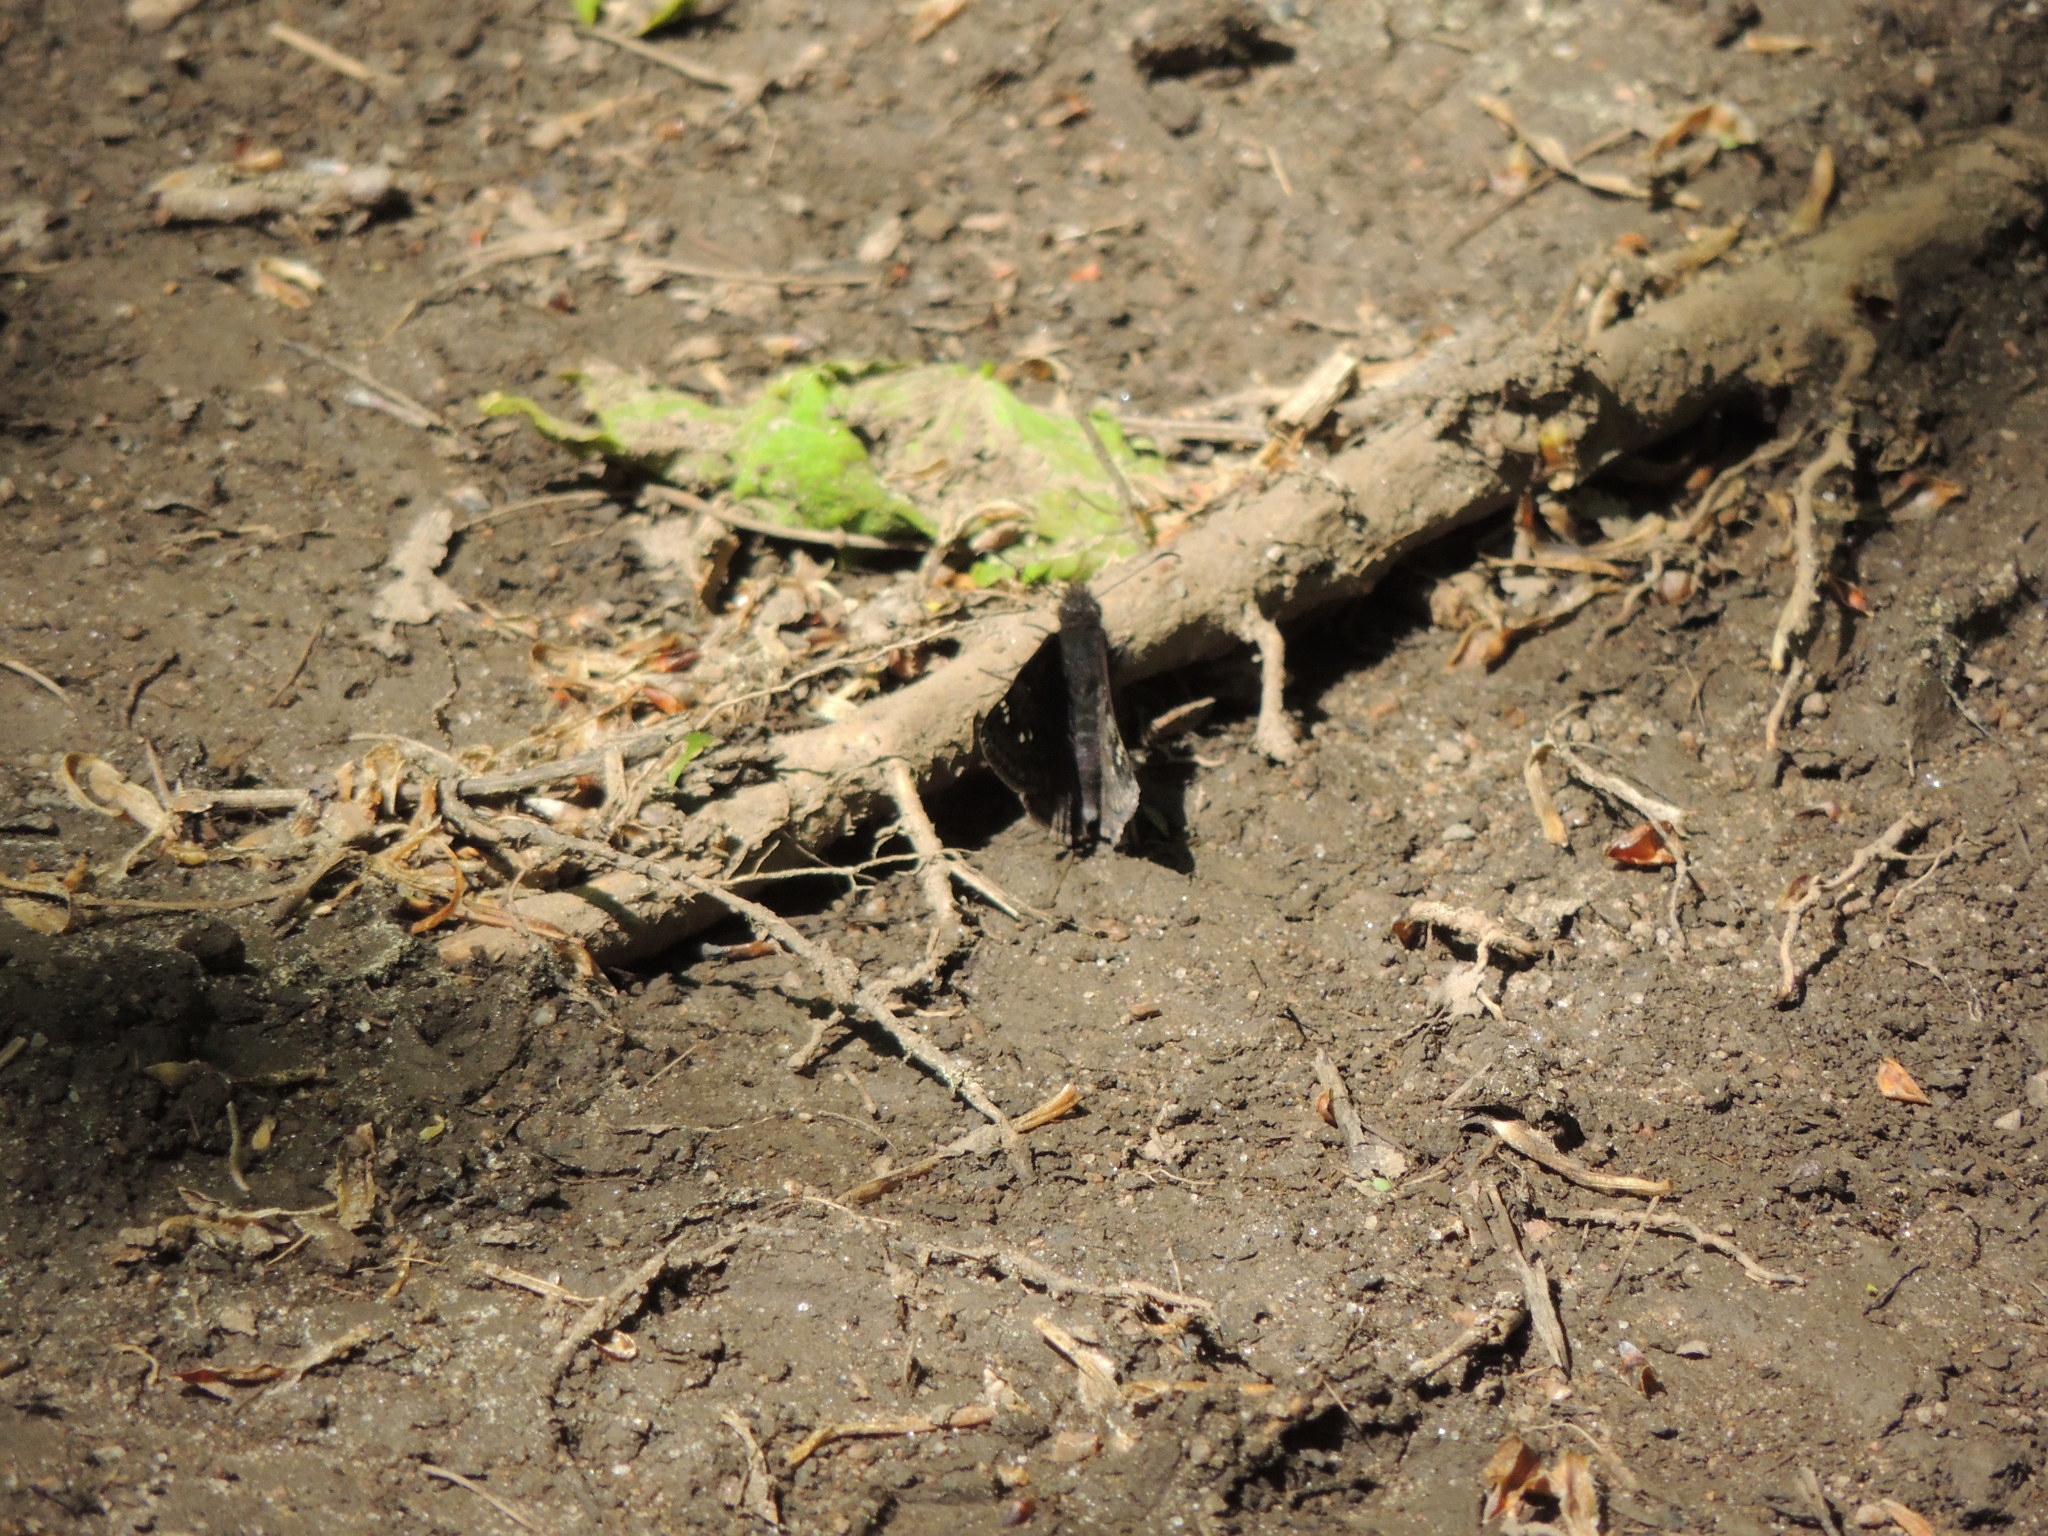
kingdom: Animalia
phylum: Arthropoda
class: Insecta
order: Lepidoptera
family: Hesperiidae
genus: Erynnis
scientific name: Erynnis juvenalis
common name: Juvenal's duskywing
